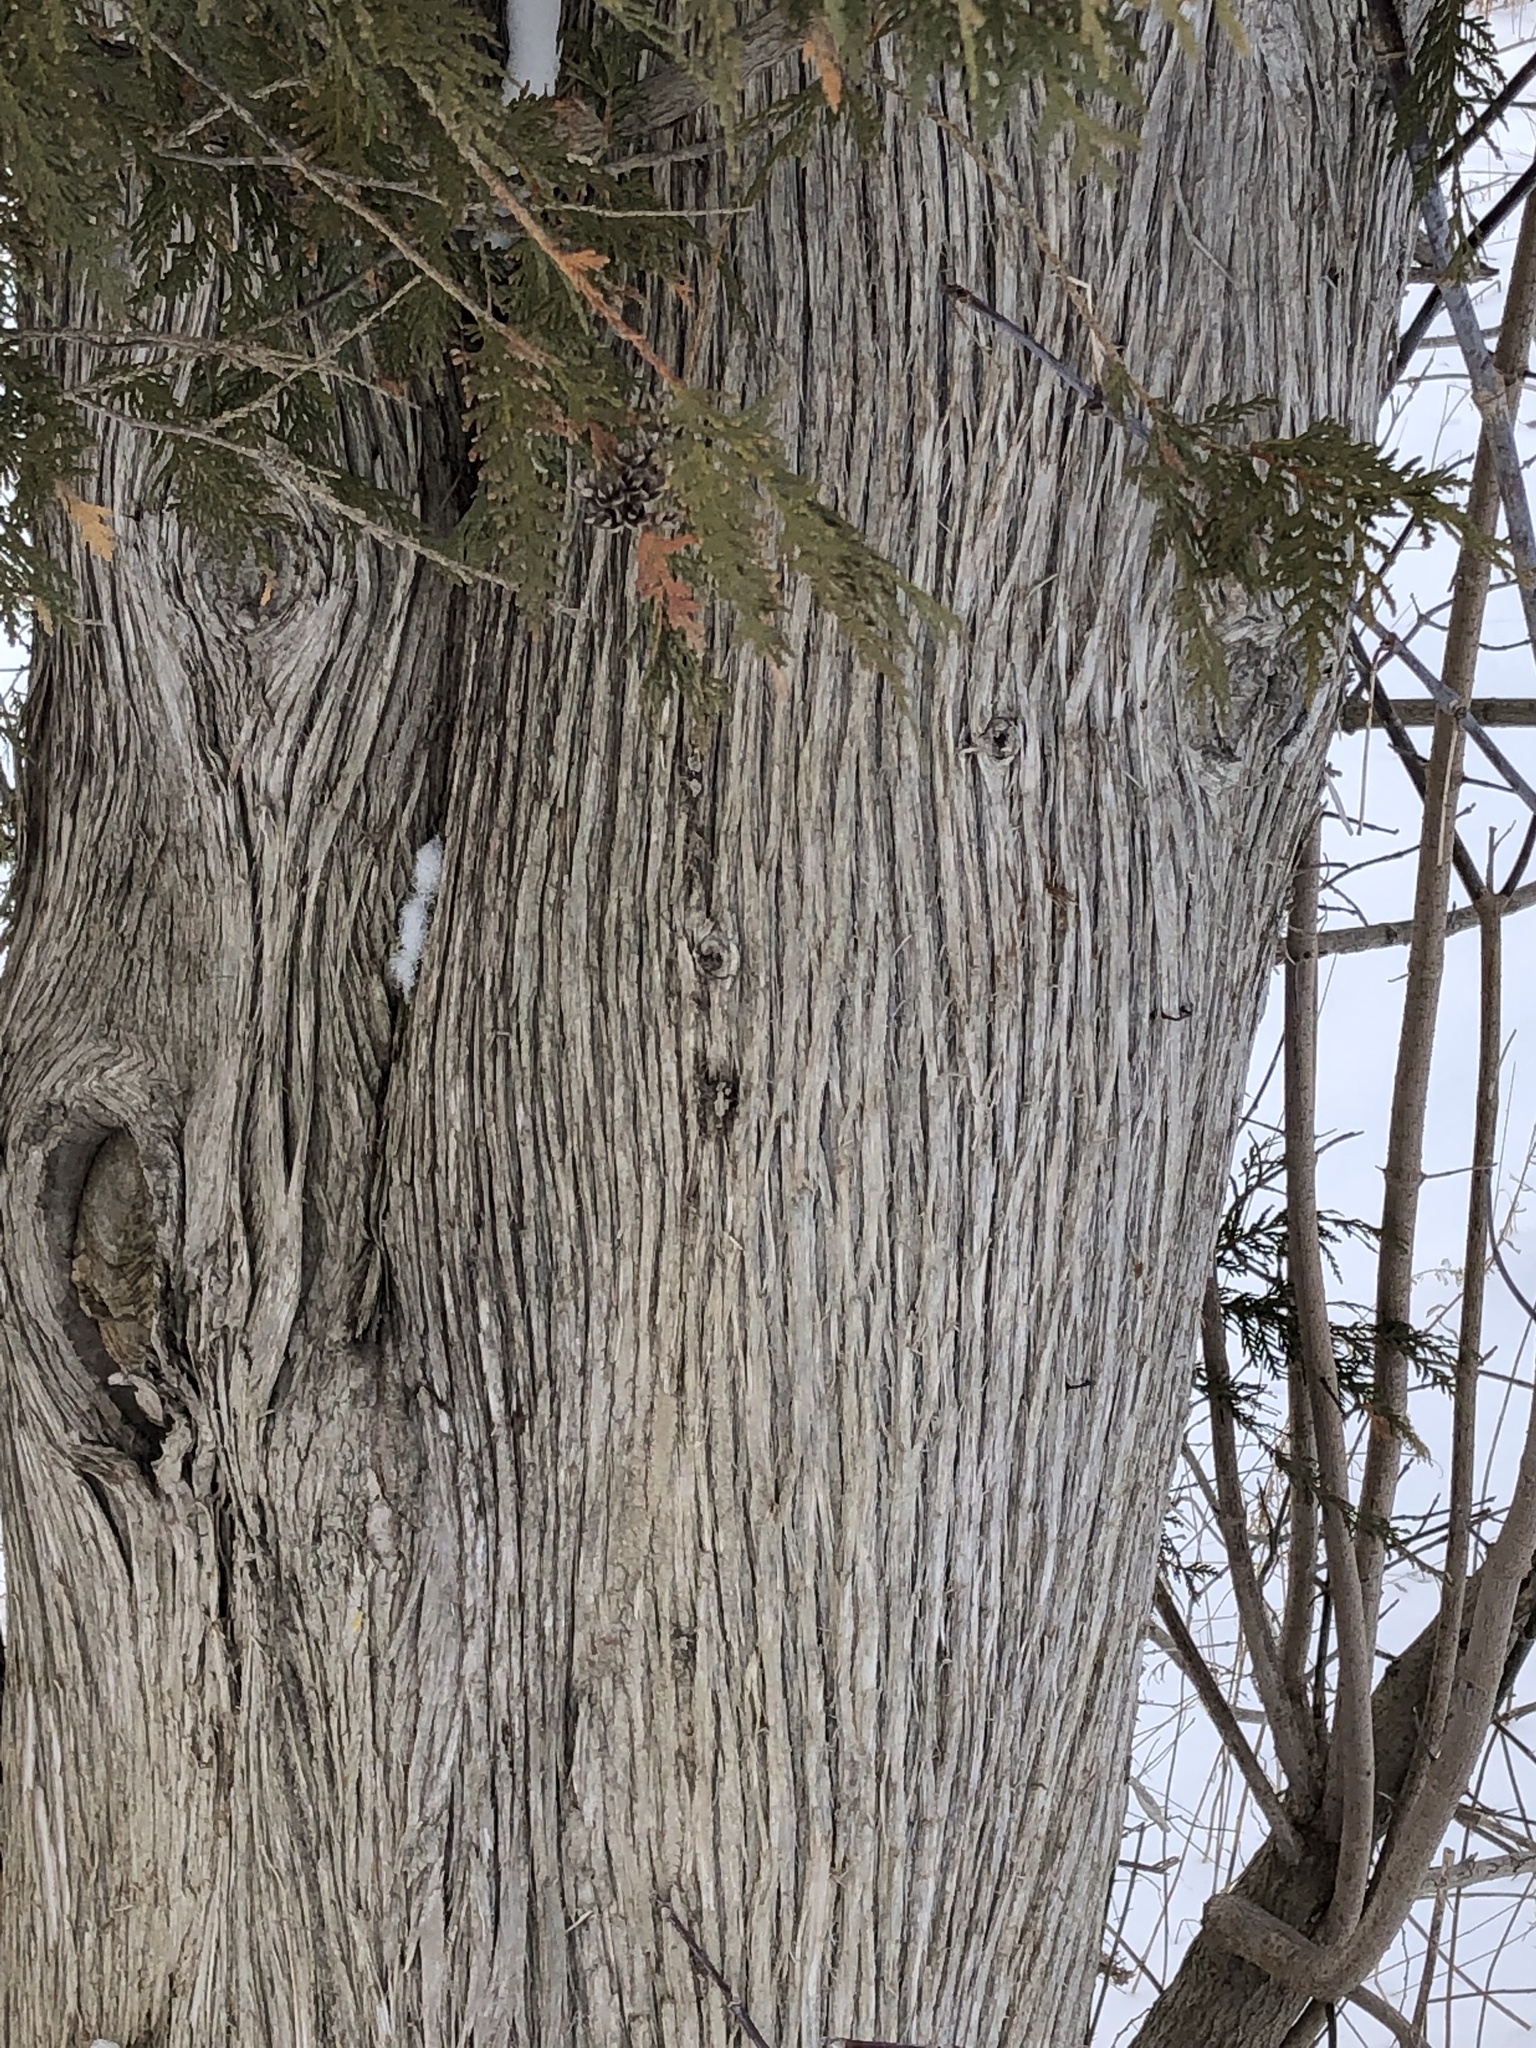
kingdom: Plantae
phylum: Tracheophyta
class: Pinopsida
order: Pinales
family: Cupressaceae
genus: Thuja
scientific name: Thuja occidentalis
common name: Northern white-cedar
